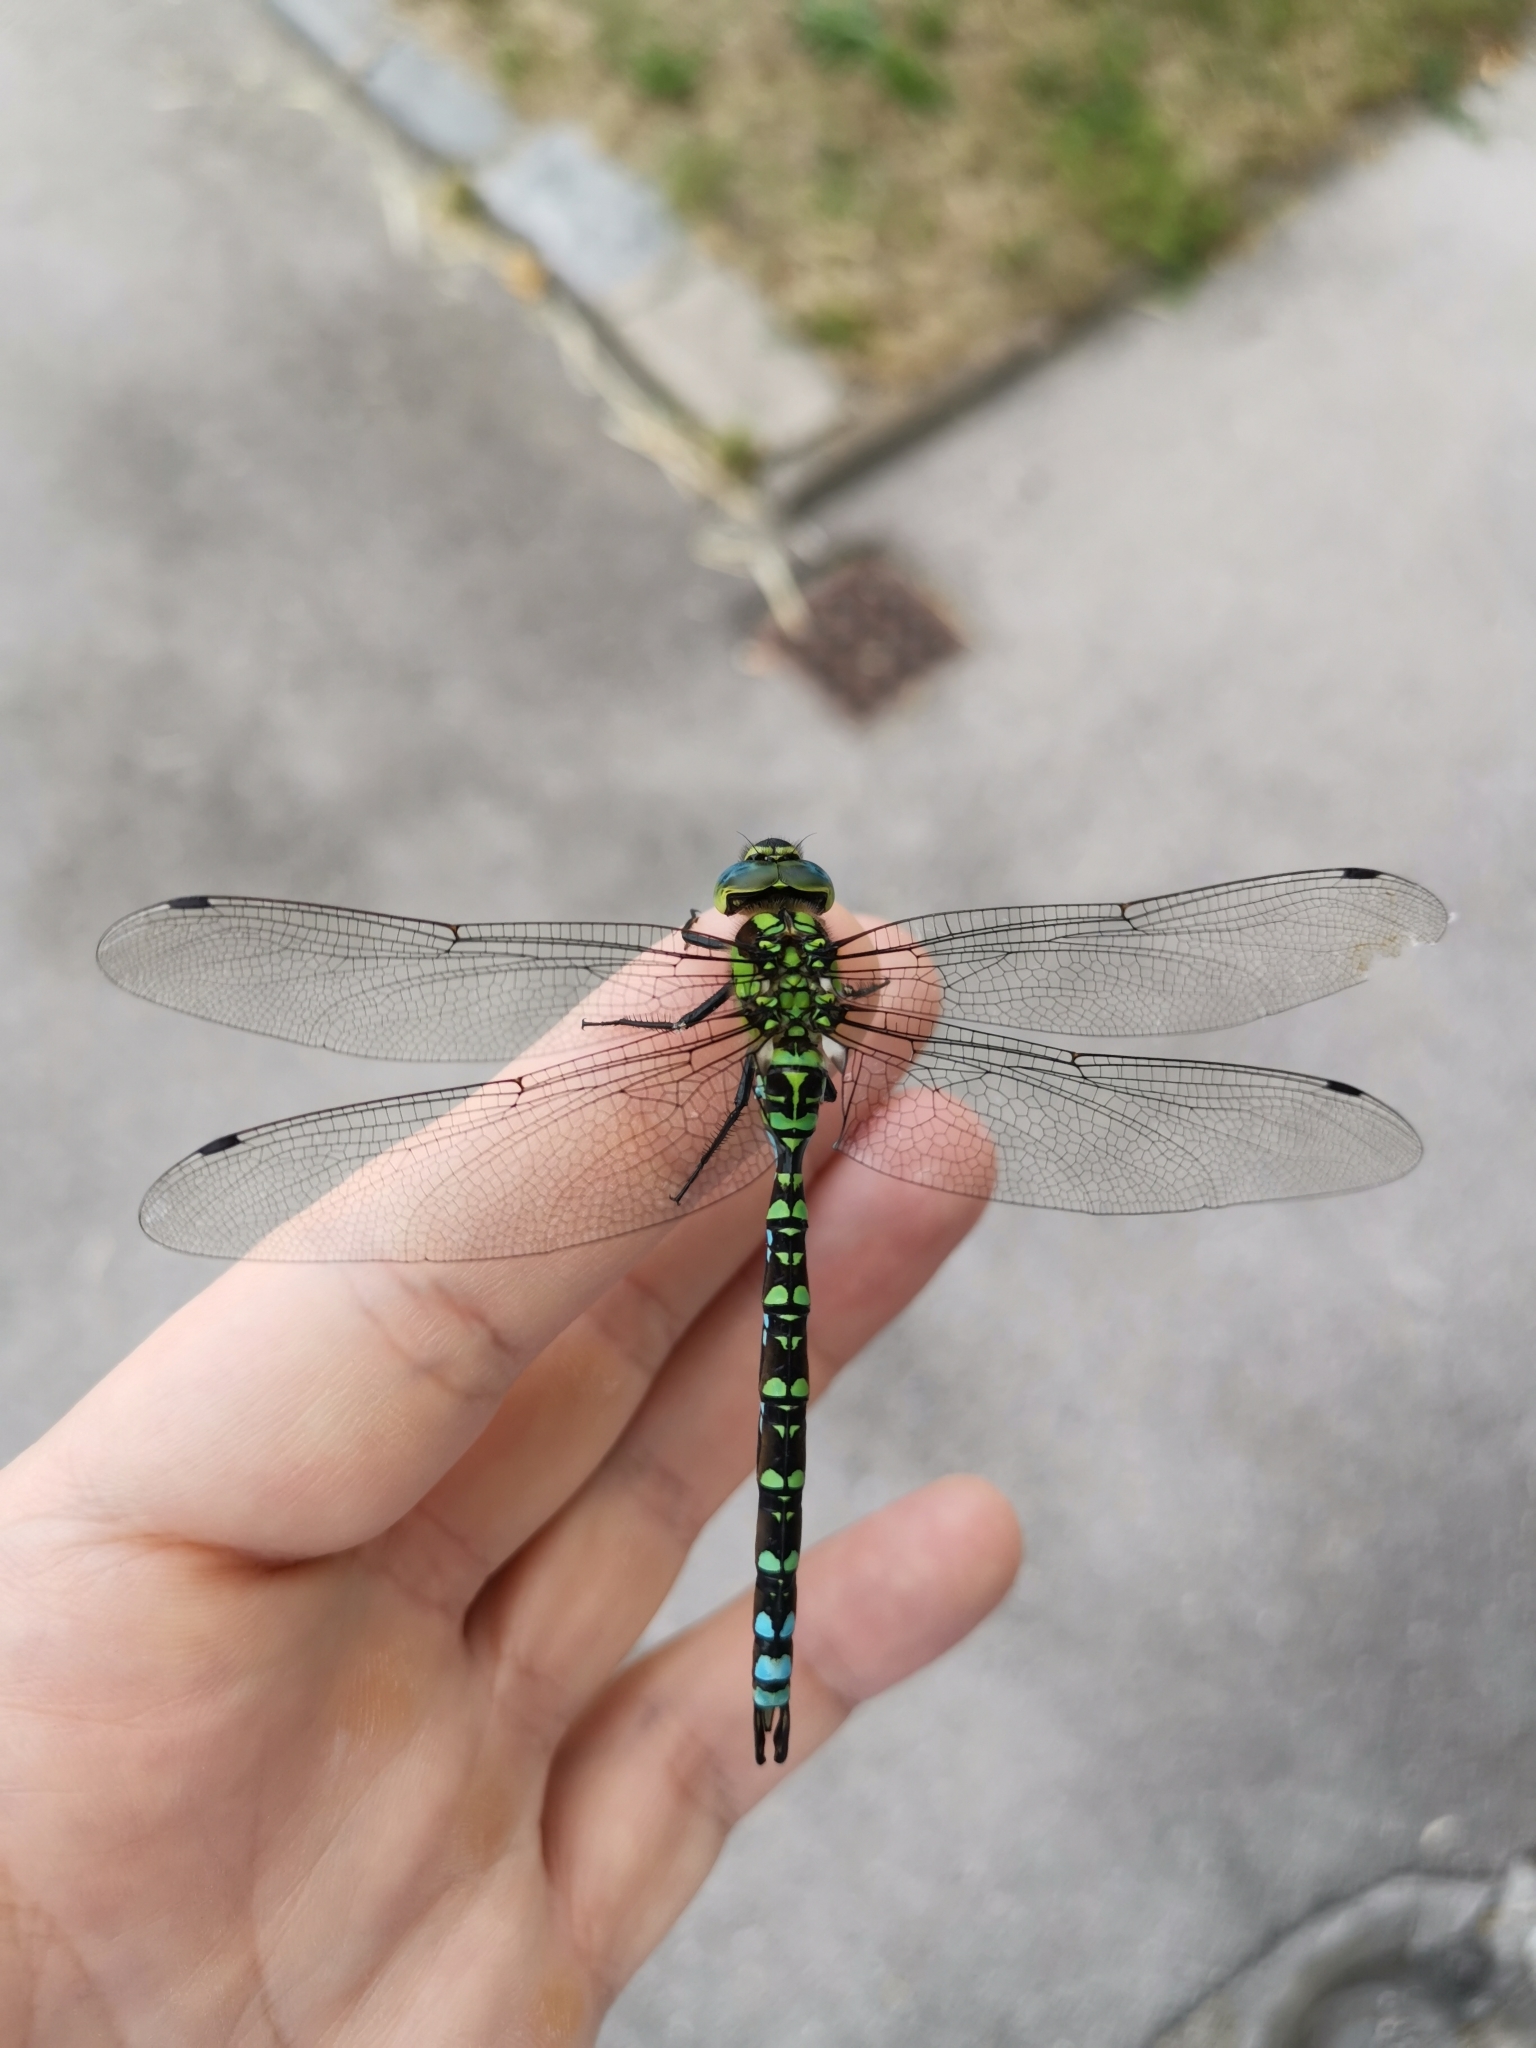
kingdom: Animalia
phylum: Arthropoda
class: Insecta
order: Odonata
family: Aeshnidae
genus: Aeshna
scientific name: Aeshna cyanea
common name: Southern hawker
